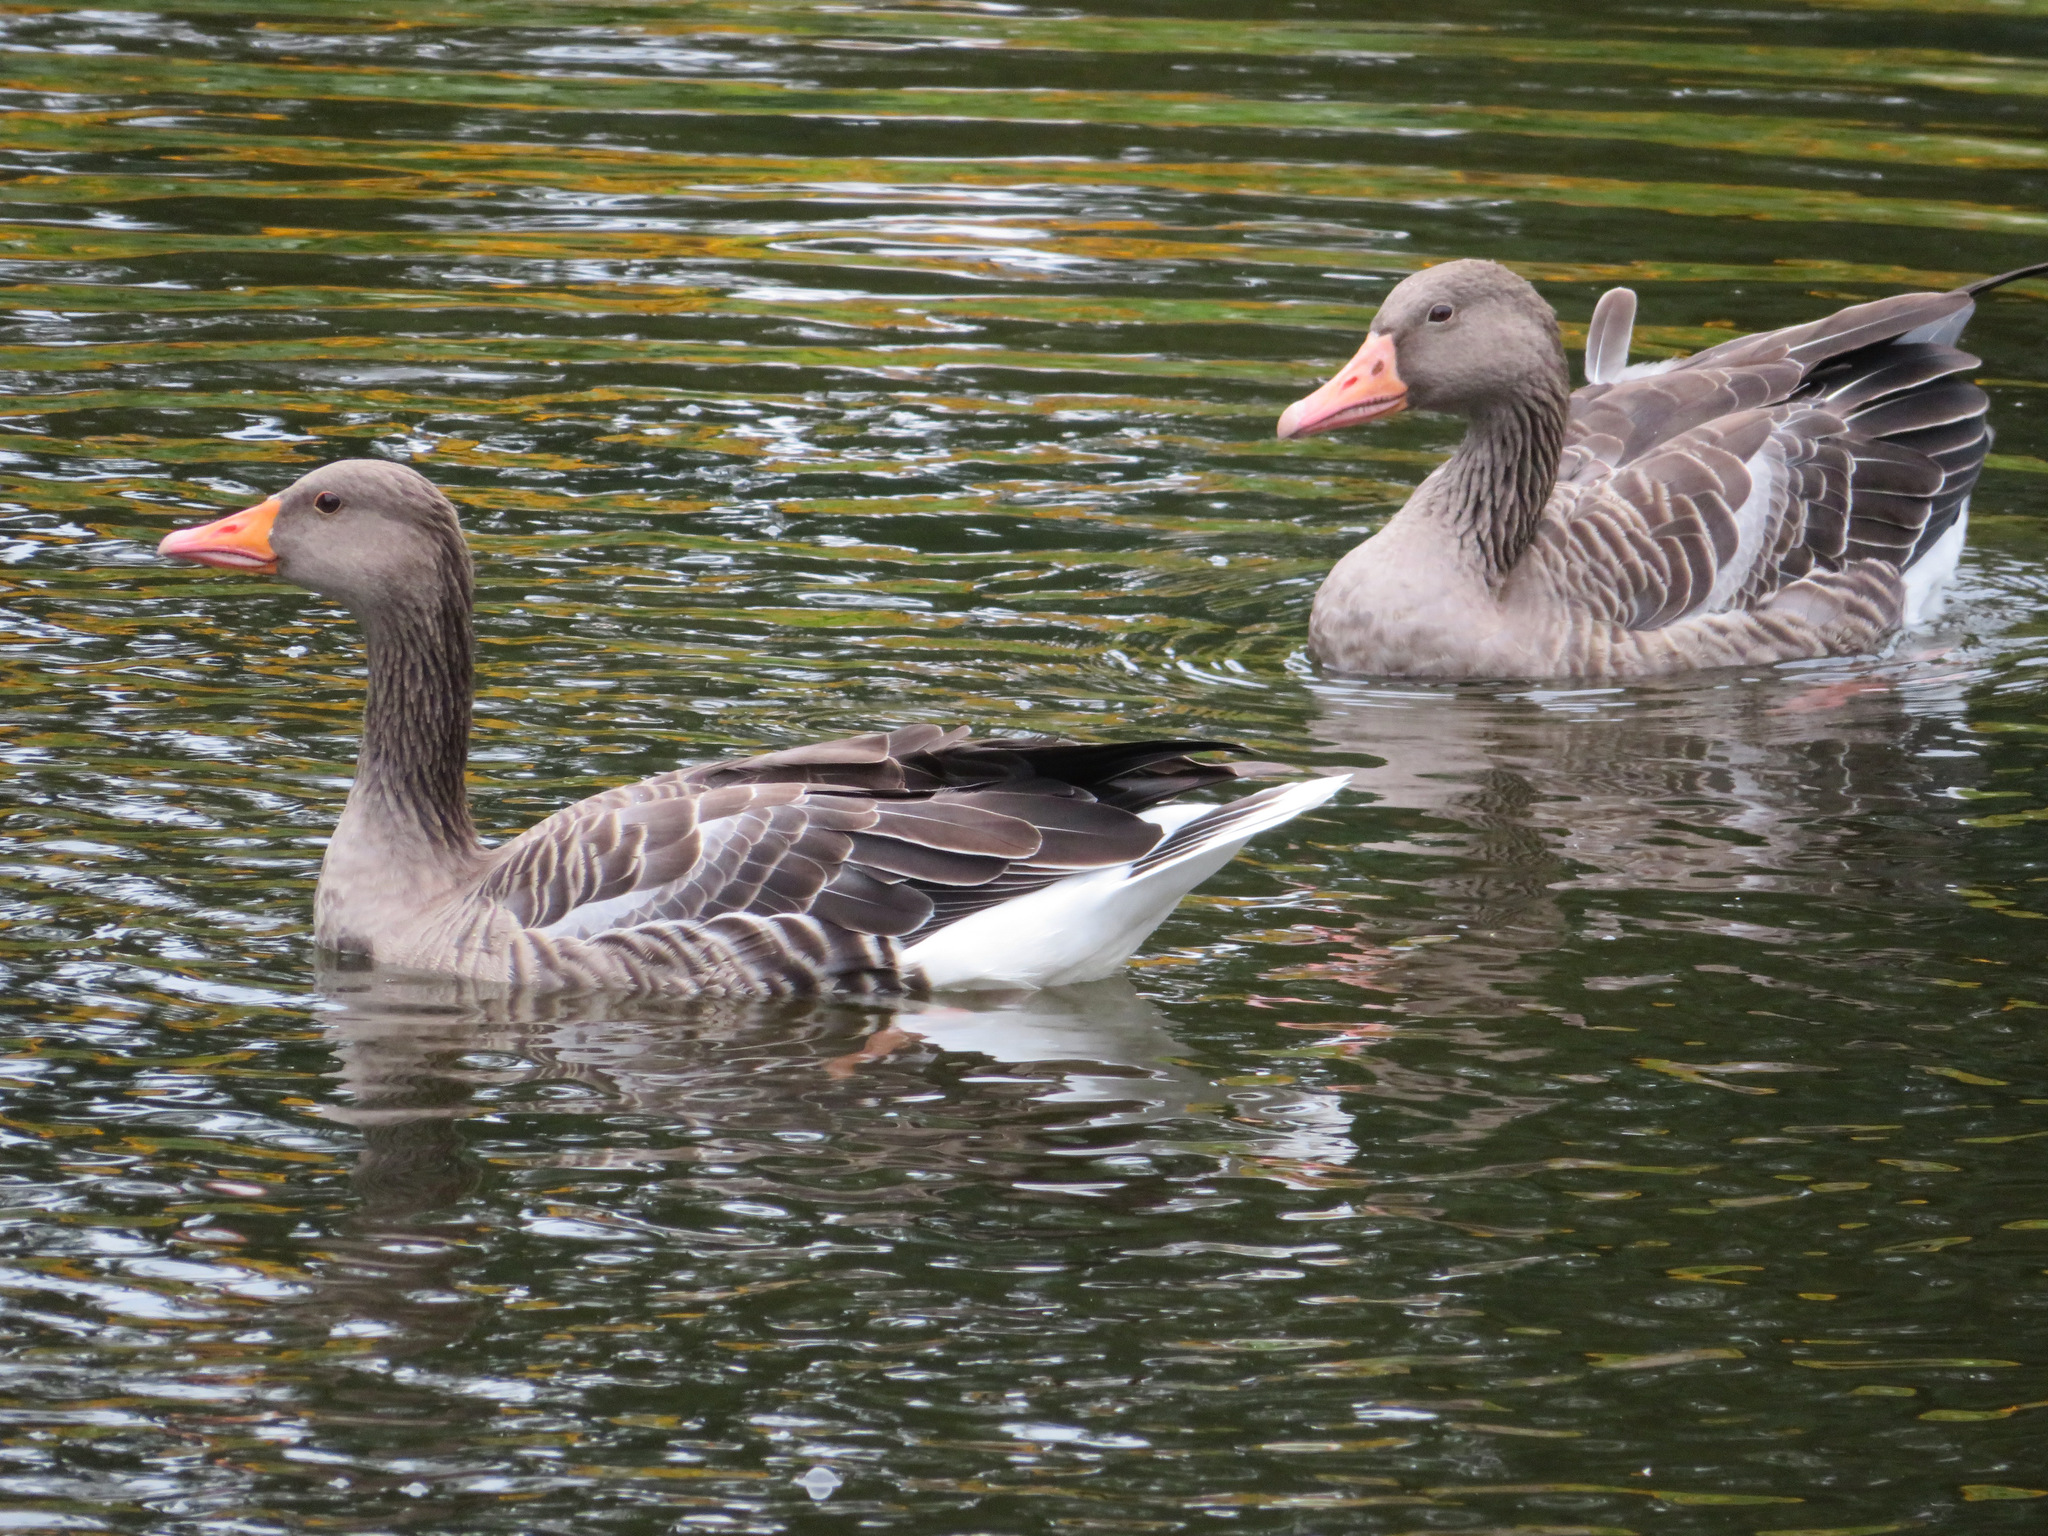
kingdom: Animalia
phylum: Chordata
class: Aves
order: Anseriformes
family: Anatidae
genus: Anser
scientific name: Anser anser
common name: Greylag goose
